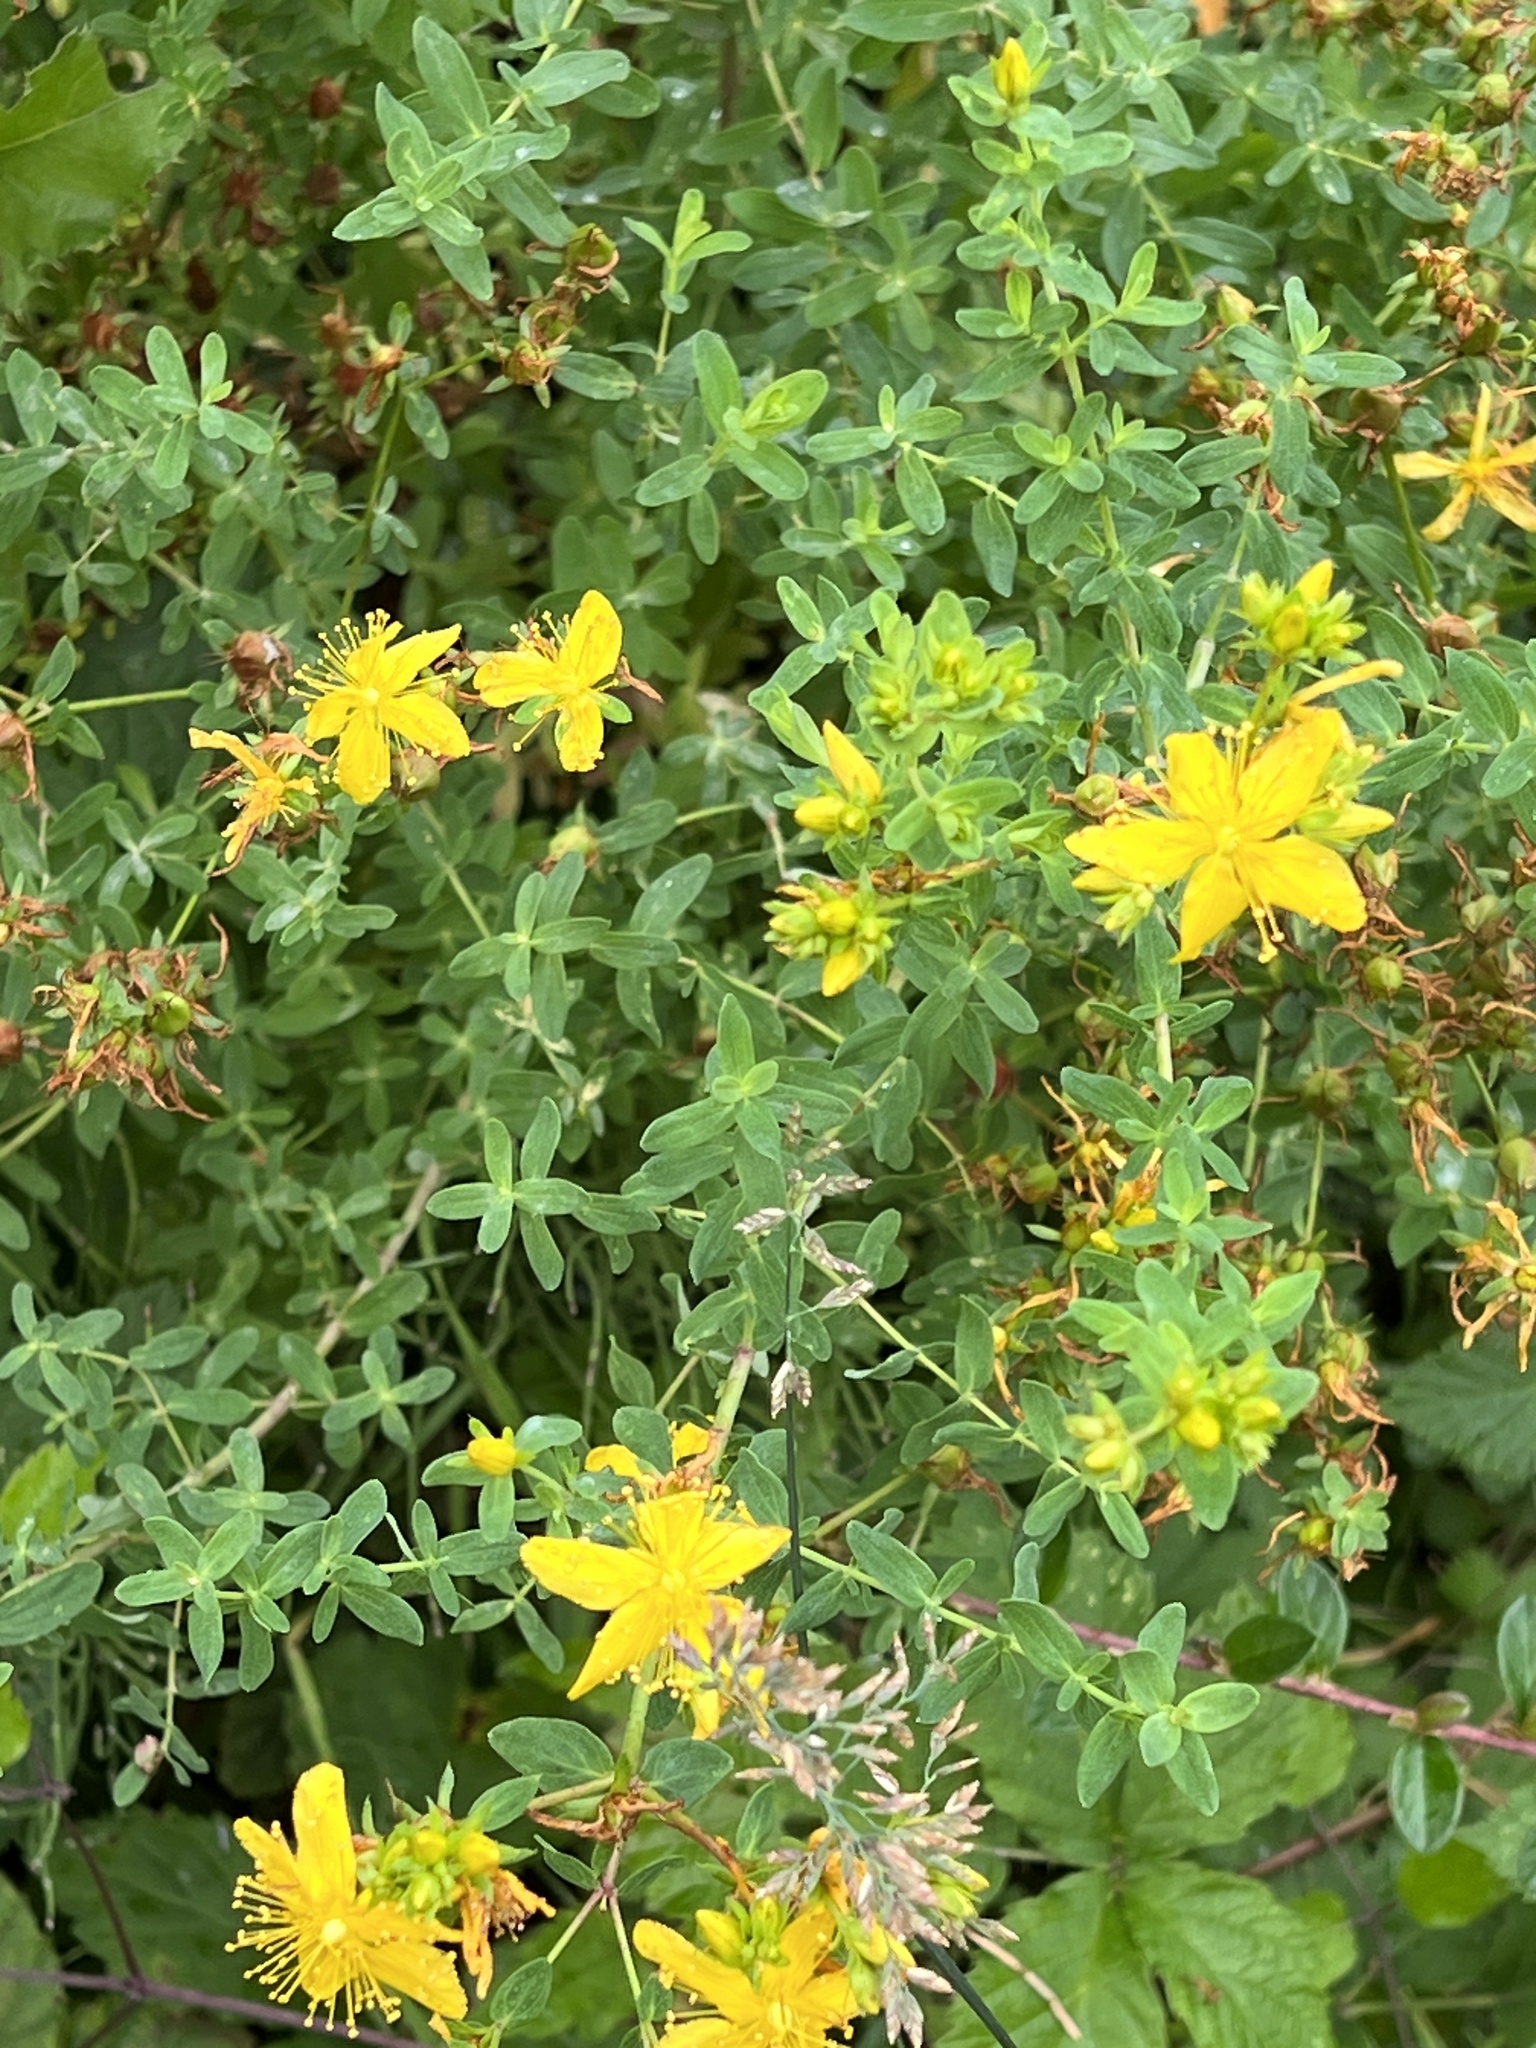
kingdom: Plantae
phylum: Tracheophyta
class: Magnoliopsida
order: Malpighiales
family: Hypericaceae
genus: Hypericum
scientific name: Hypericum perforatum
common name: Common st. johnswort
